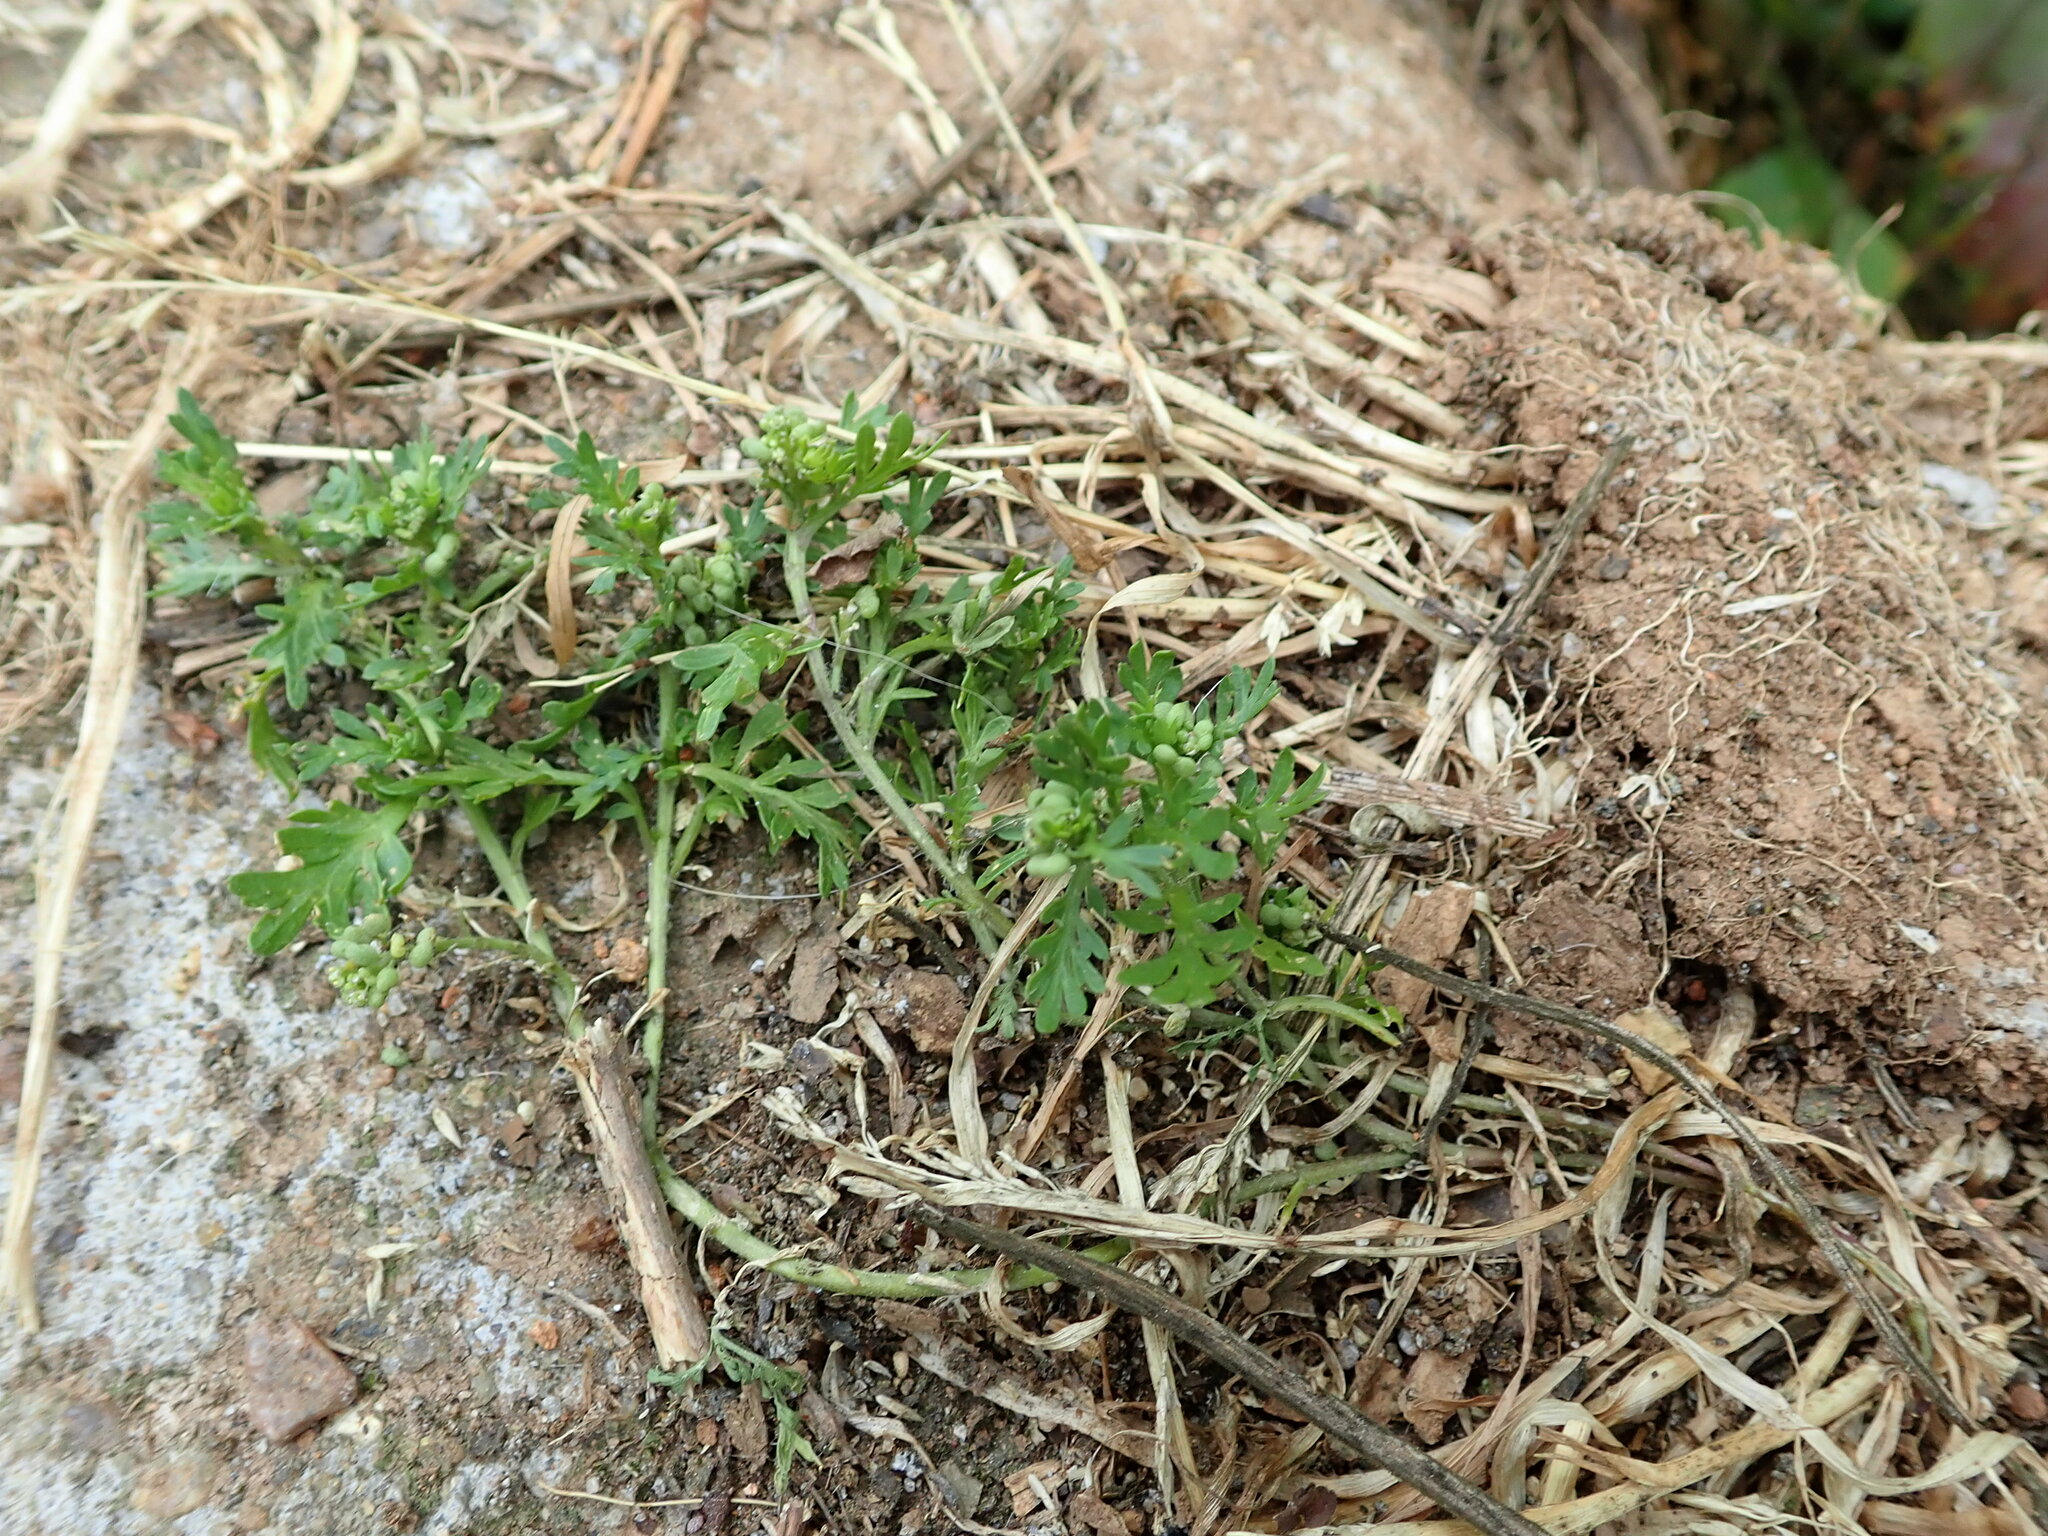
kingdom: Plantae
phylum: Tracheophyta
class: Magnoliopsida
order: Brassicales
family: Brassicaceae
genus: Lepidium
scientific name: Lepidium didymum
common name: Lesser swinecress
